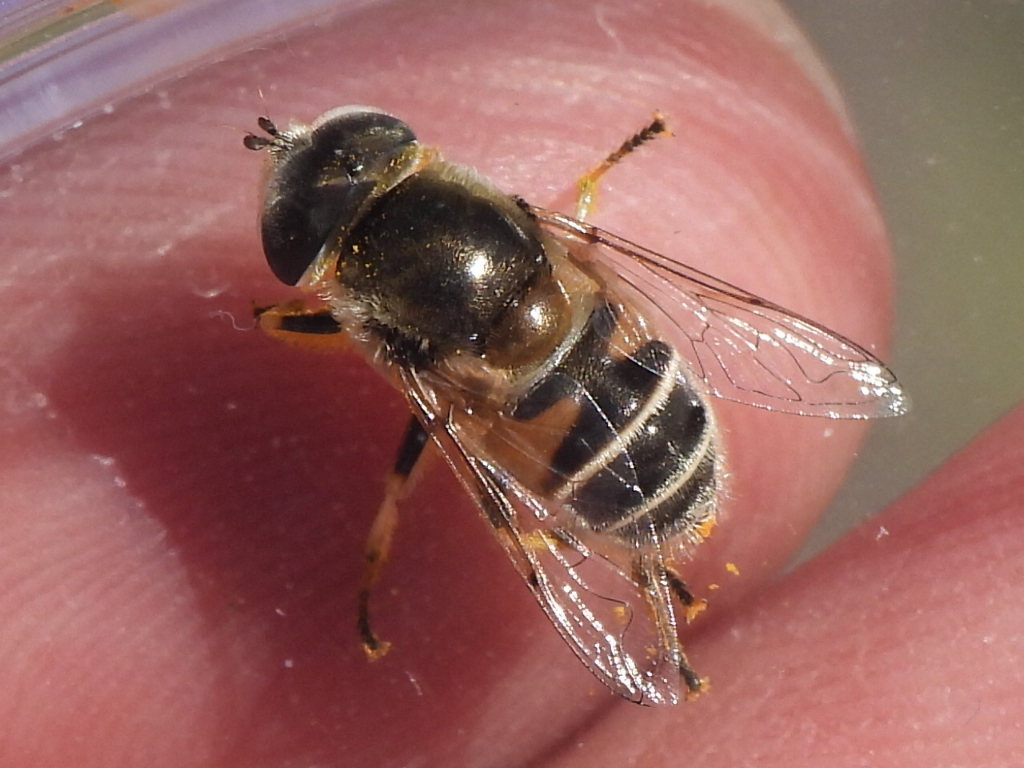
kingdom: Animalia
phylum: Arthropoda
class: Insecta
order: Diptera
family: Syrphidae
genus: Eristalis
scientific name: Eristalis stipator
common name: Yellow-shouldered drone fly
